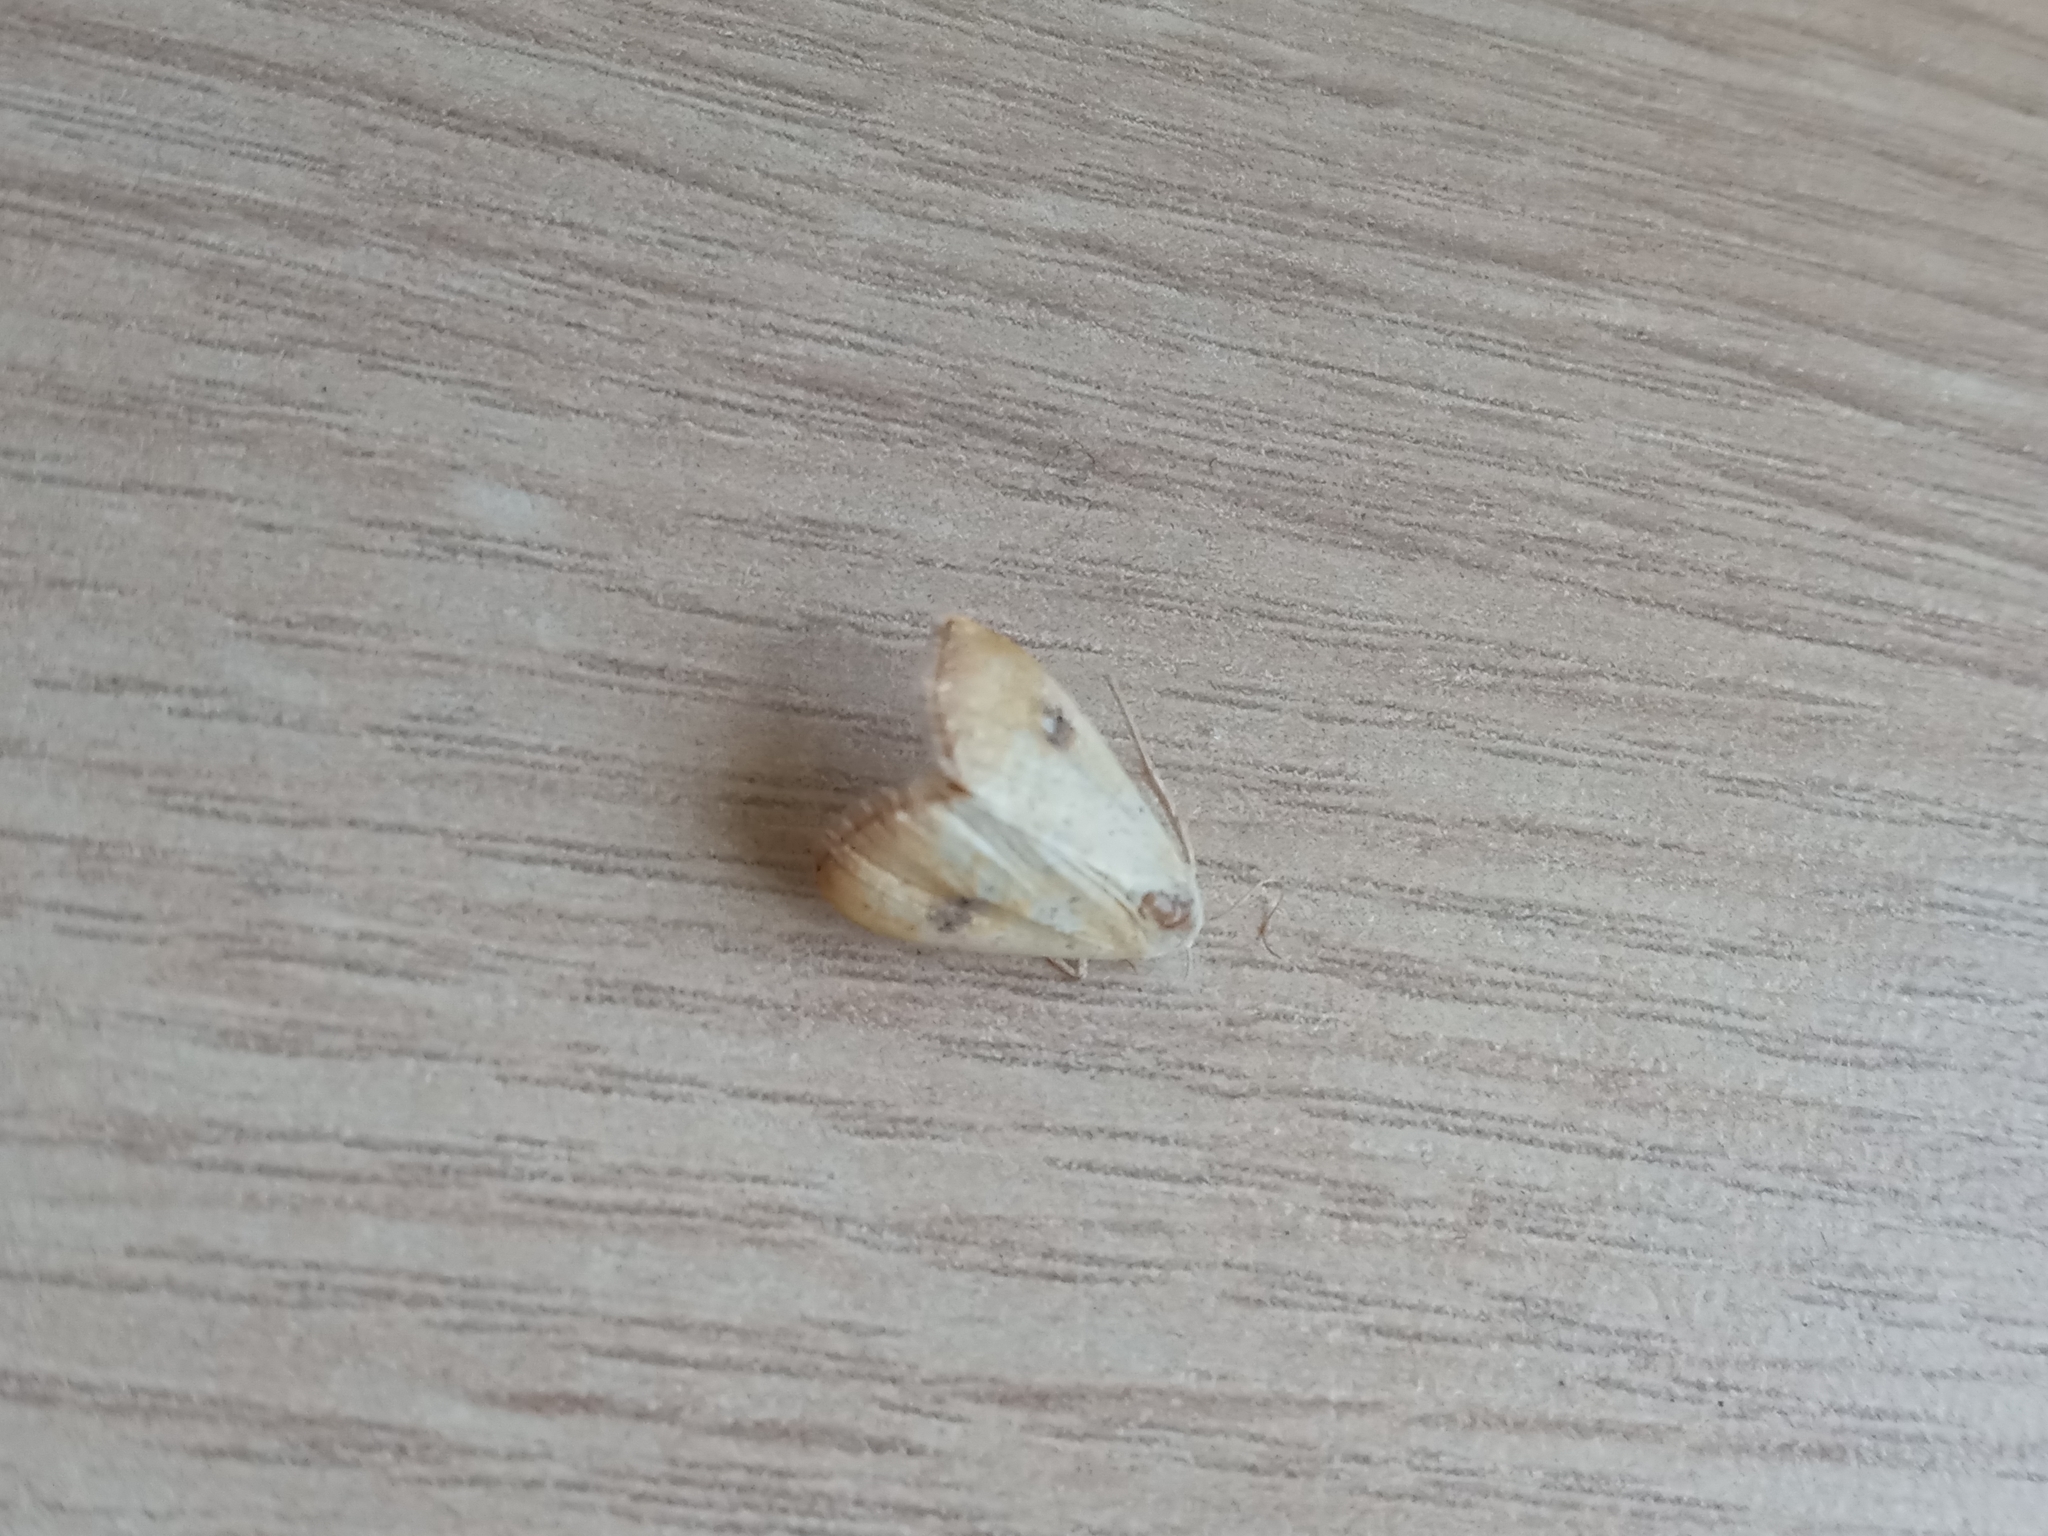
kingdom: Animalia
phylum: Arthropoda
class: Insecta
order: Lepidoptera
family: Erebidae
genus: Rivula
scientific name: Rivula sericealis
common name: Straw dot
